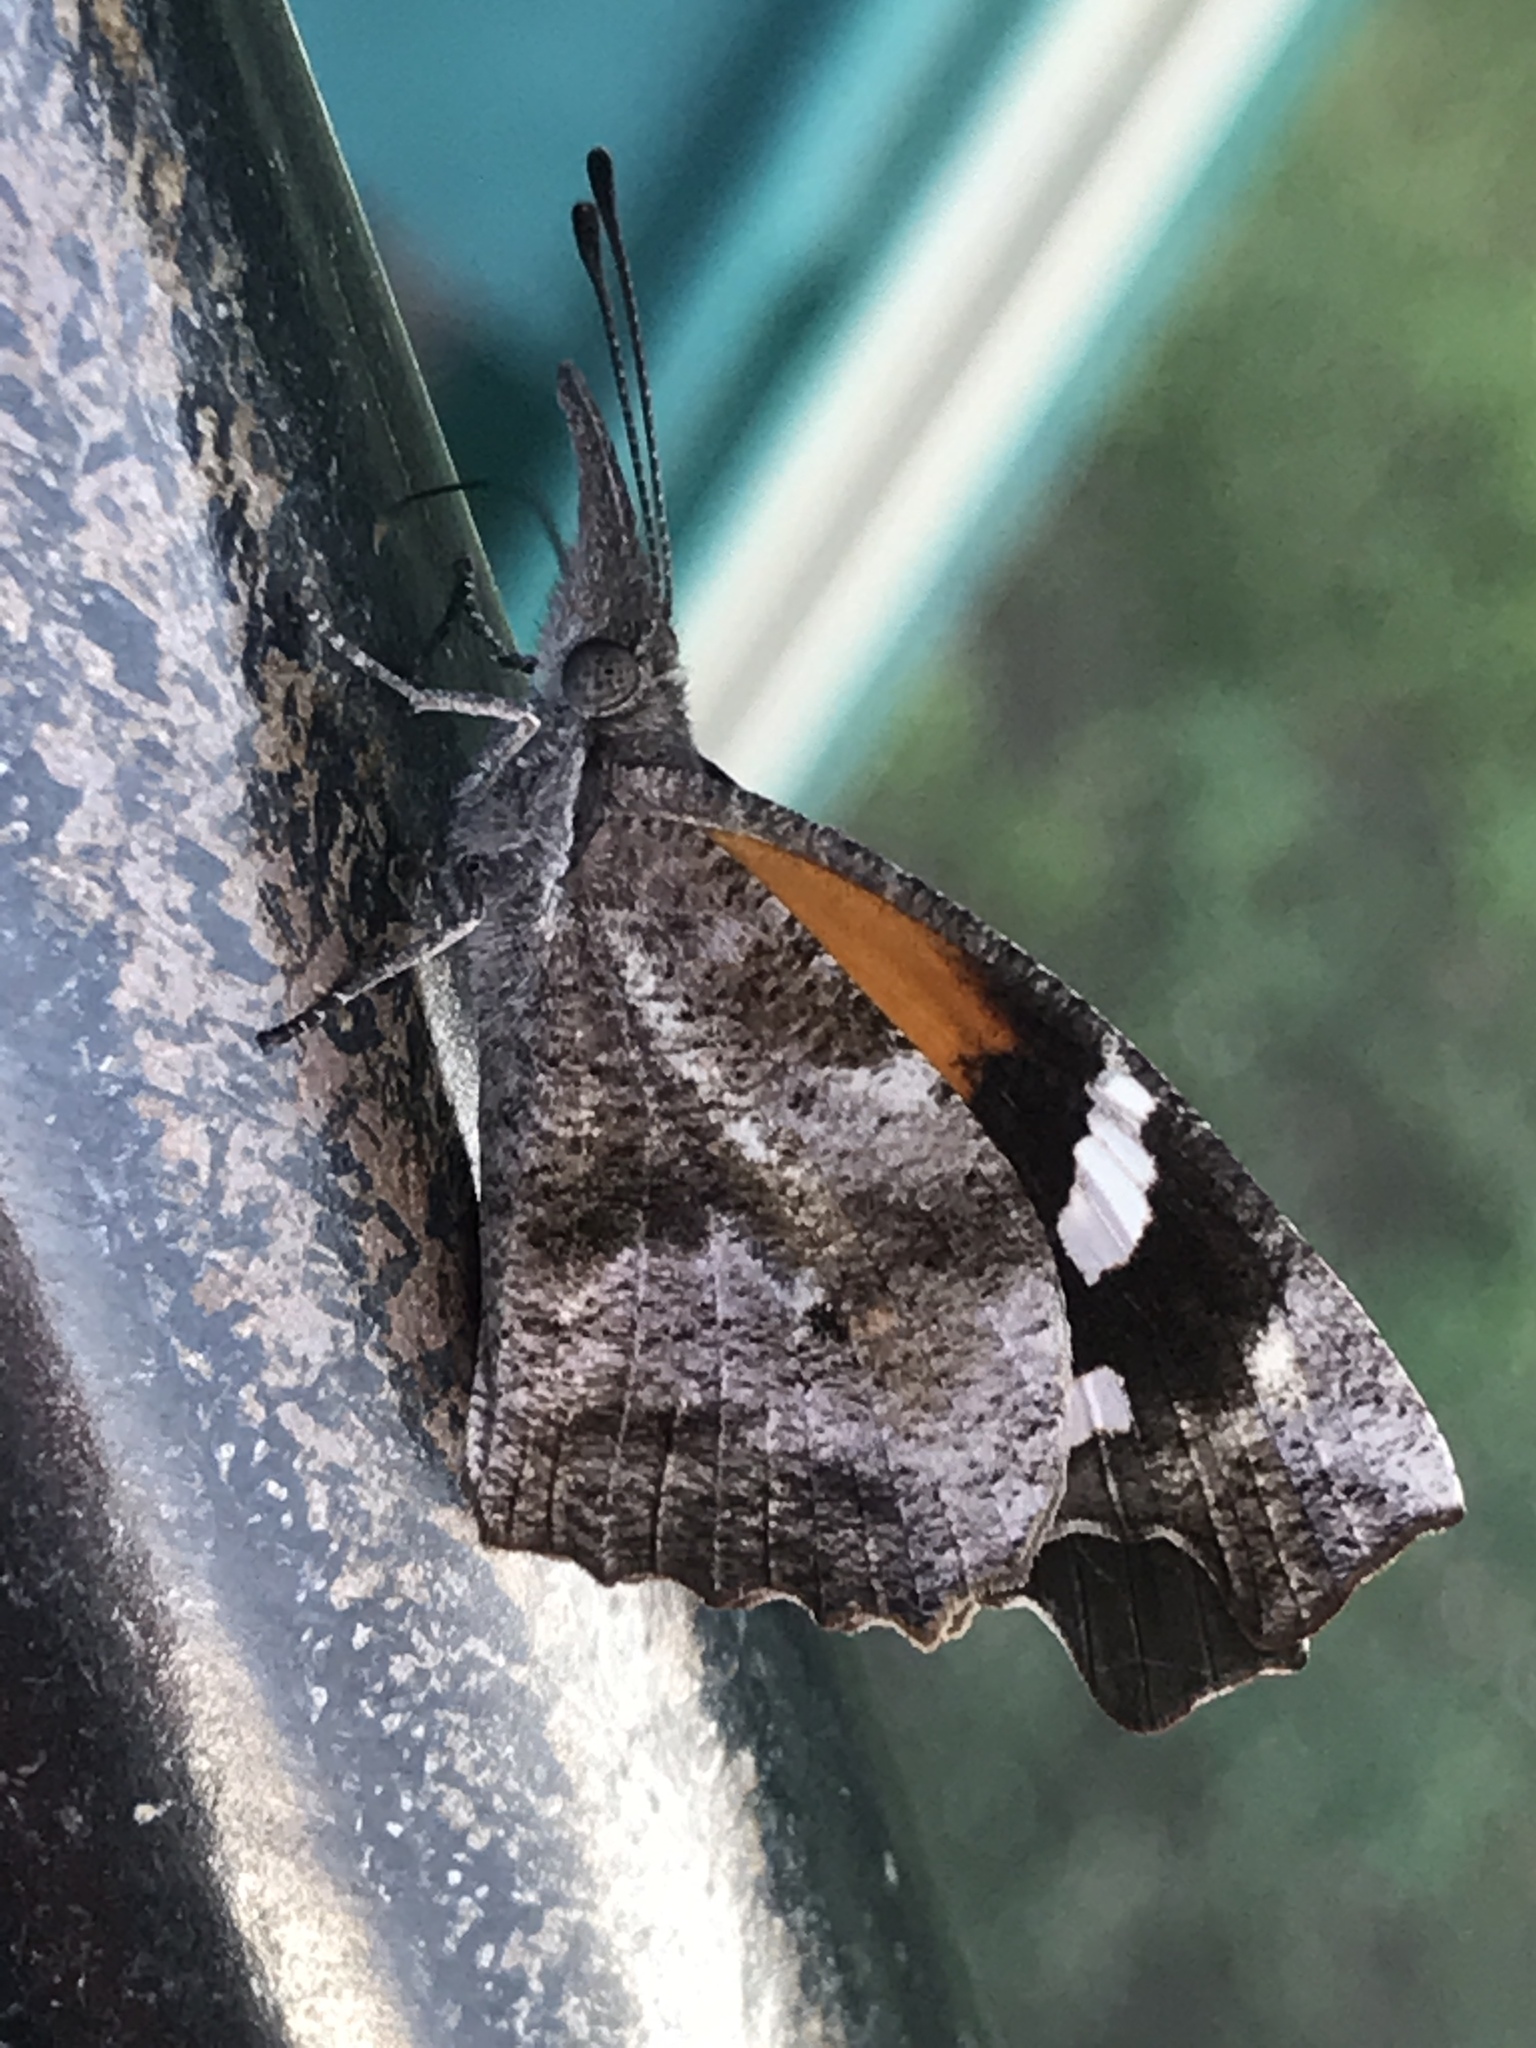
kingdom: Animalia
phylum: Arthropoda
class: Insecta
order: Lepidoptera
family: Nymphalidae
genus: Libytheana
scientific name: Libytheana carinenta
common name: American snout
